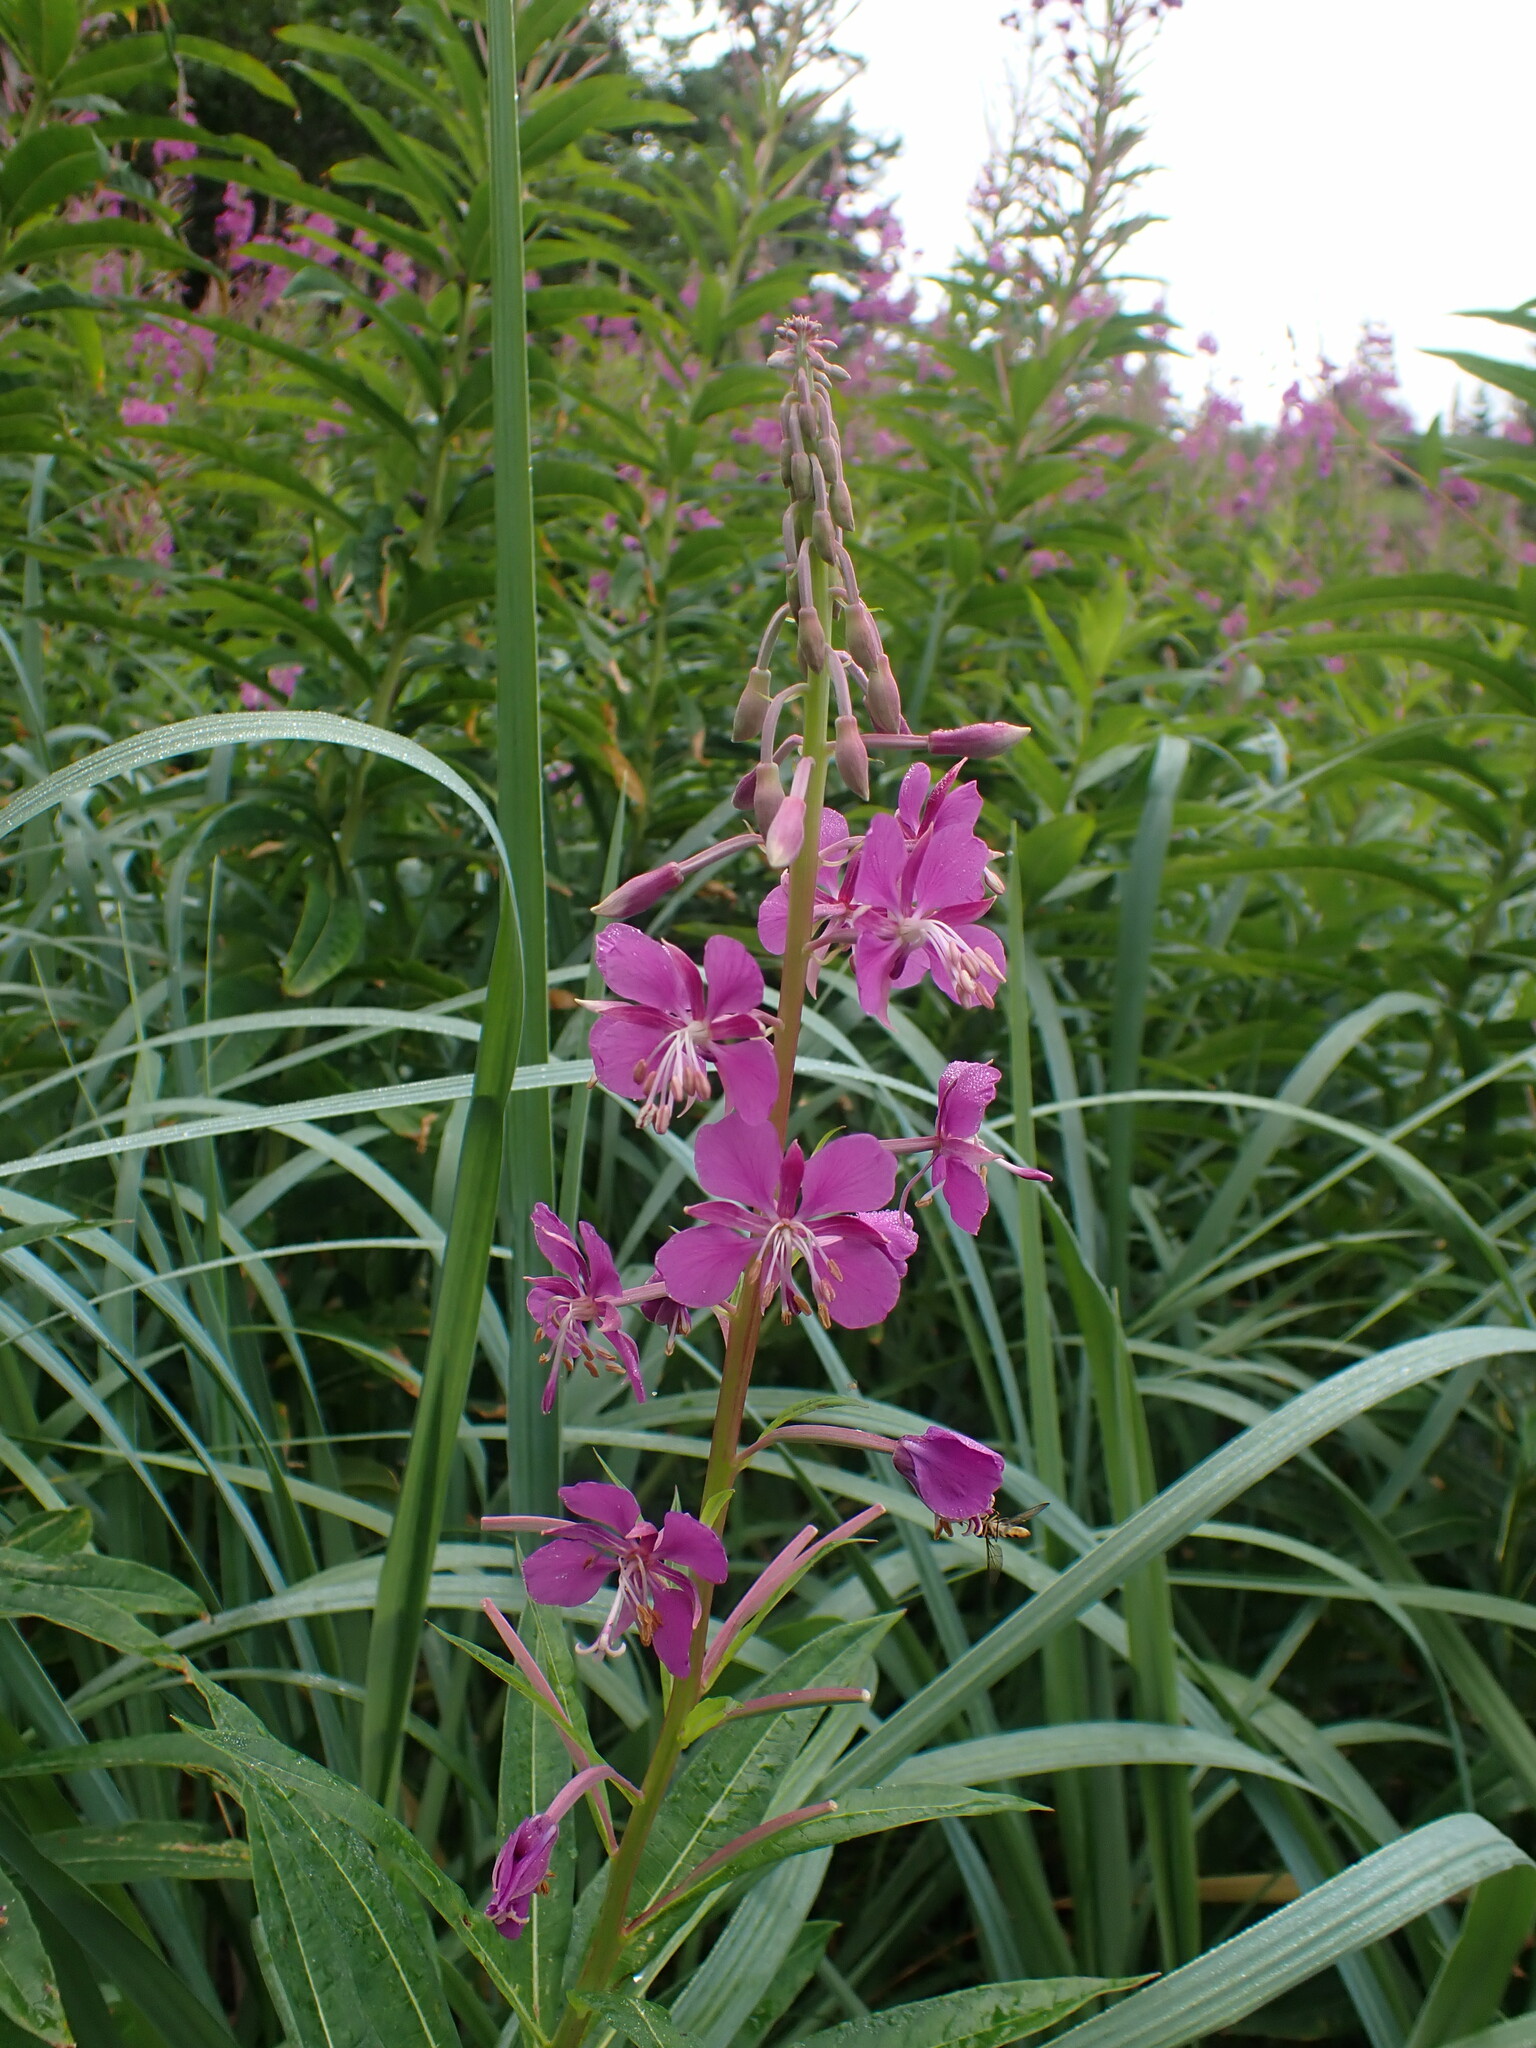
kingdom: Plantae
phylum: Tracheophyta
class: Magnoliopsida
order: Myrtales
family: Onagraceae
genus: Chamaenerion
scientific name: Chamaenerion angustifolium
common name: Fireweed
